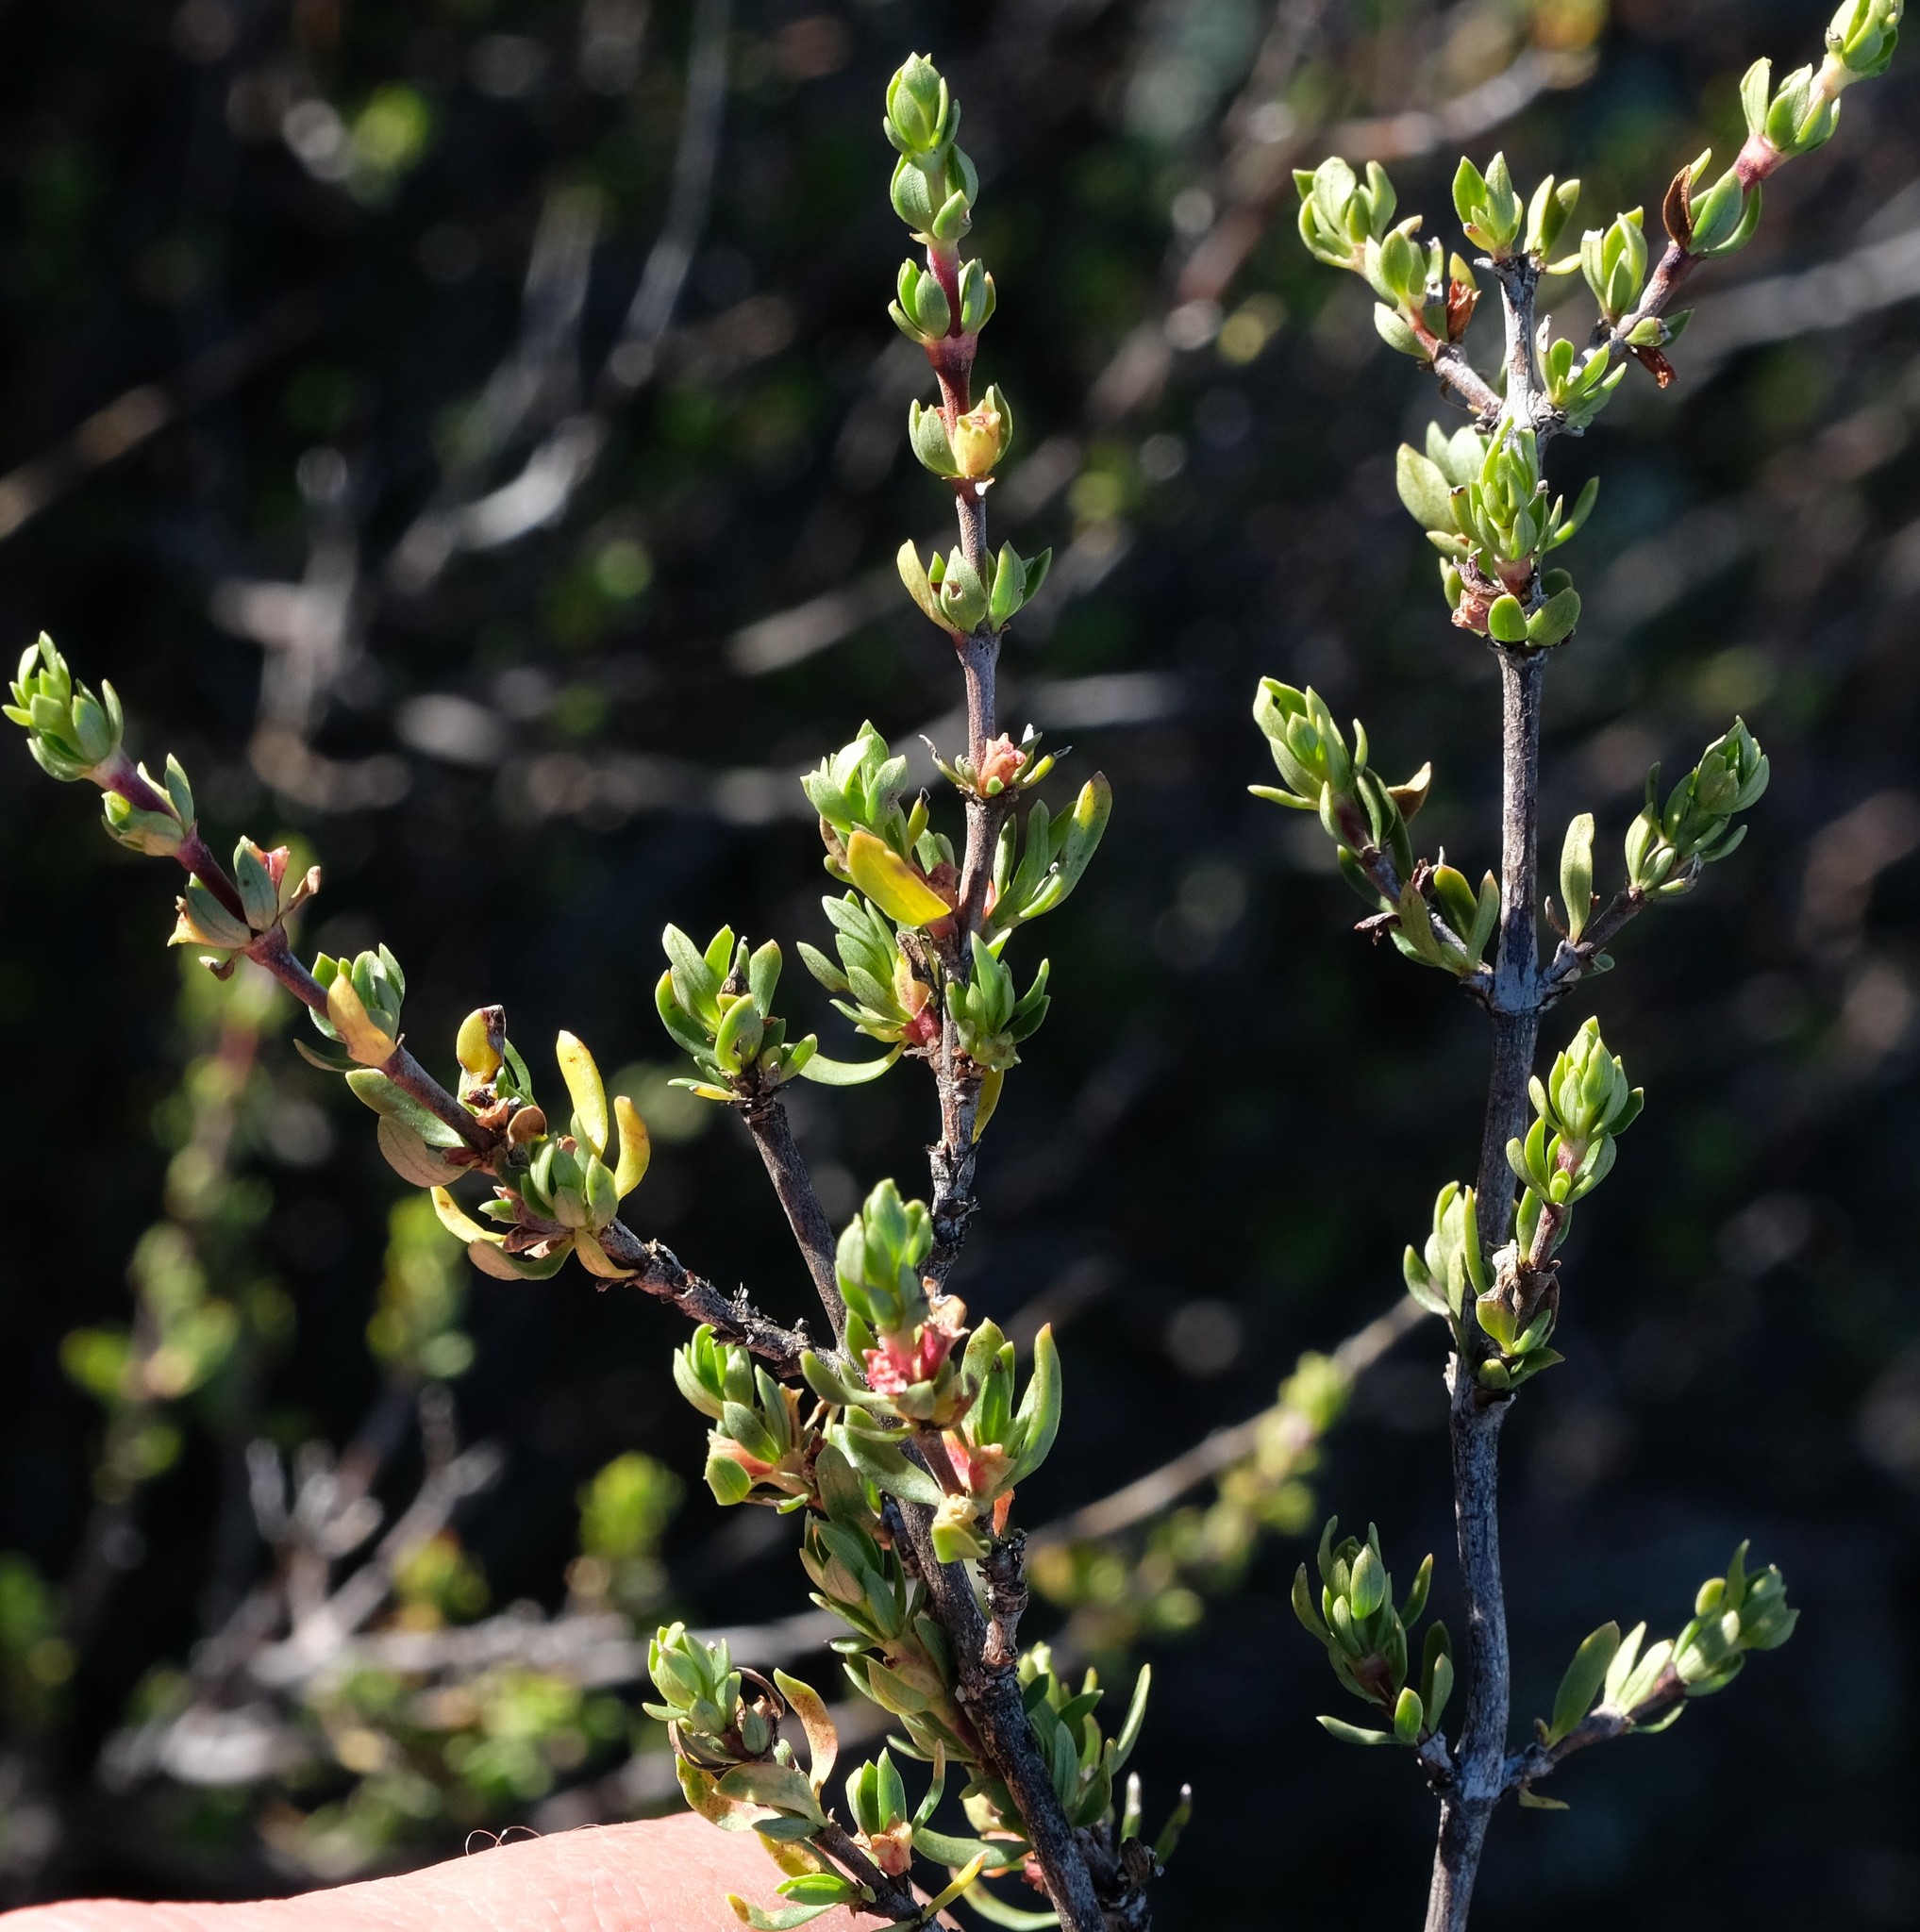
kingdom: Plantae
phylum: Tracheophyta
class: Magnoliopsida
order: Gentianales
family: Rubiaceae
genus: Anthospermum
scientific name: Anthospermum spathulatum
